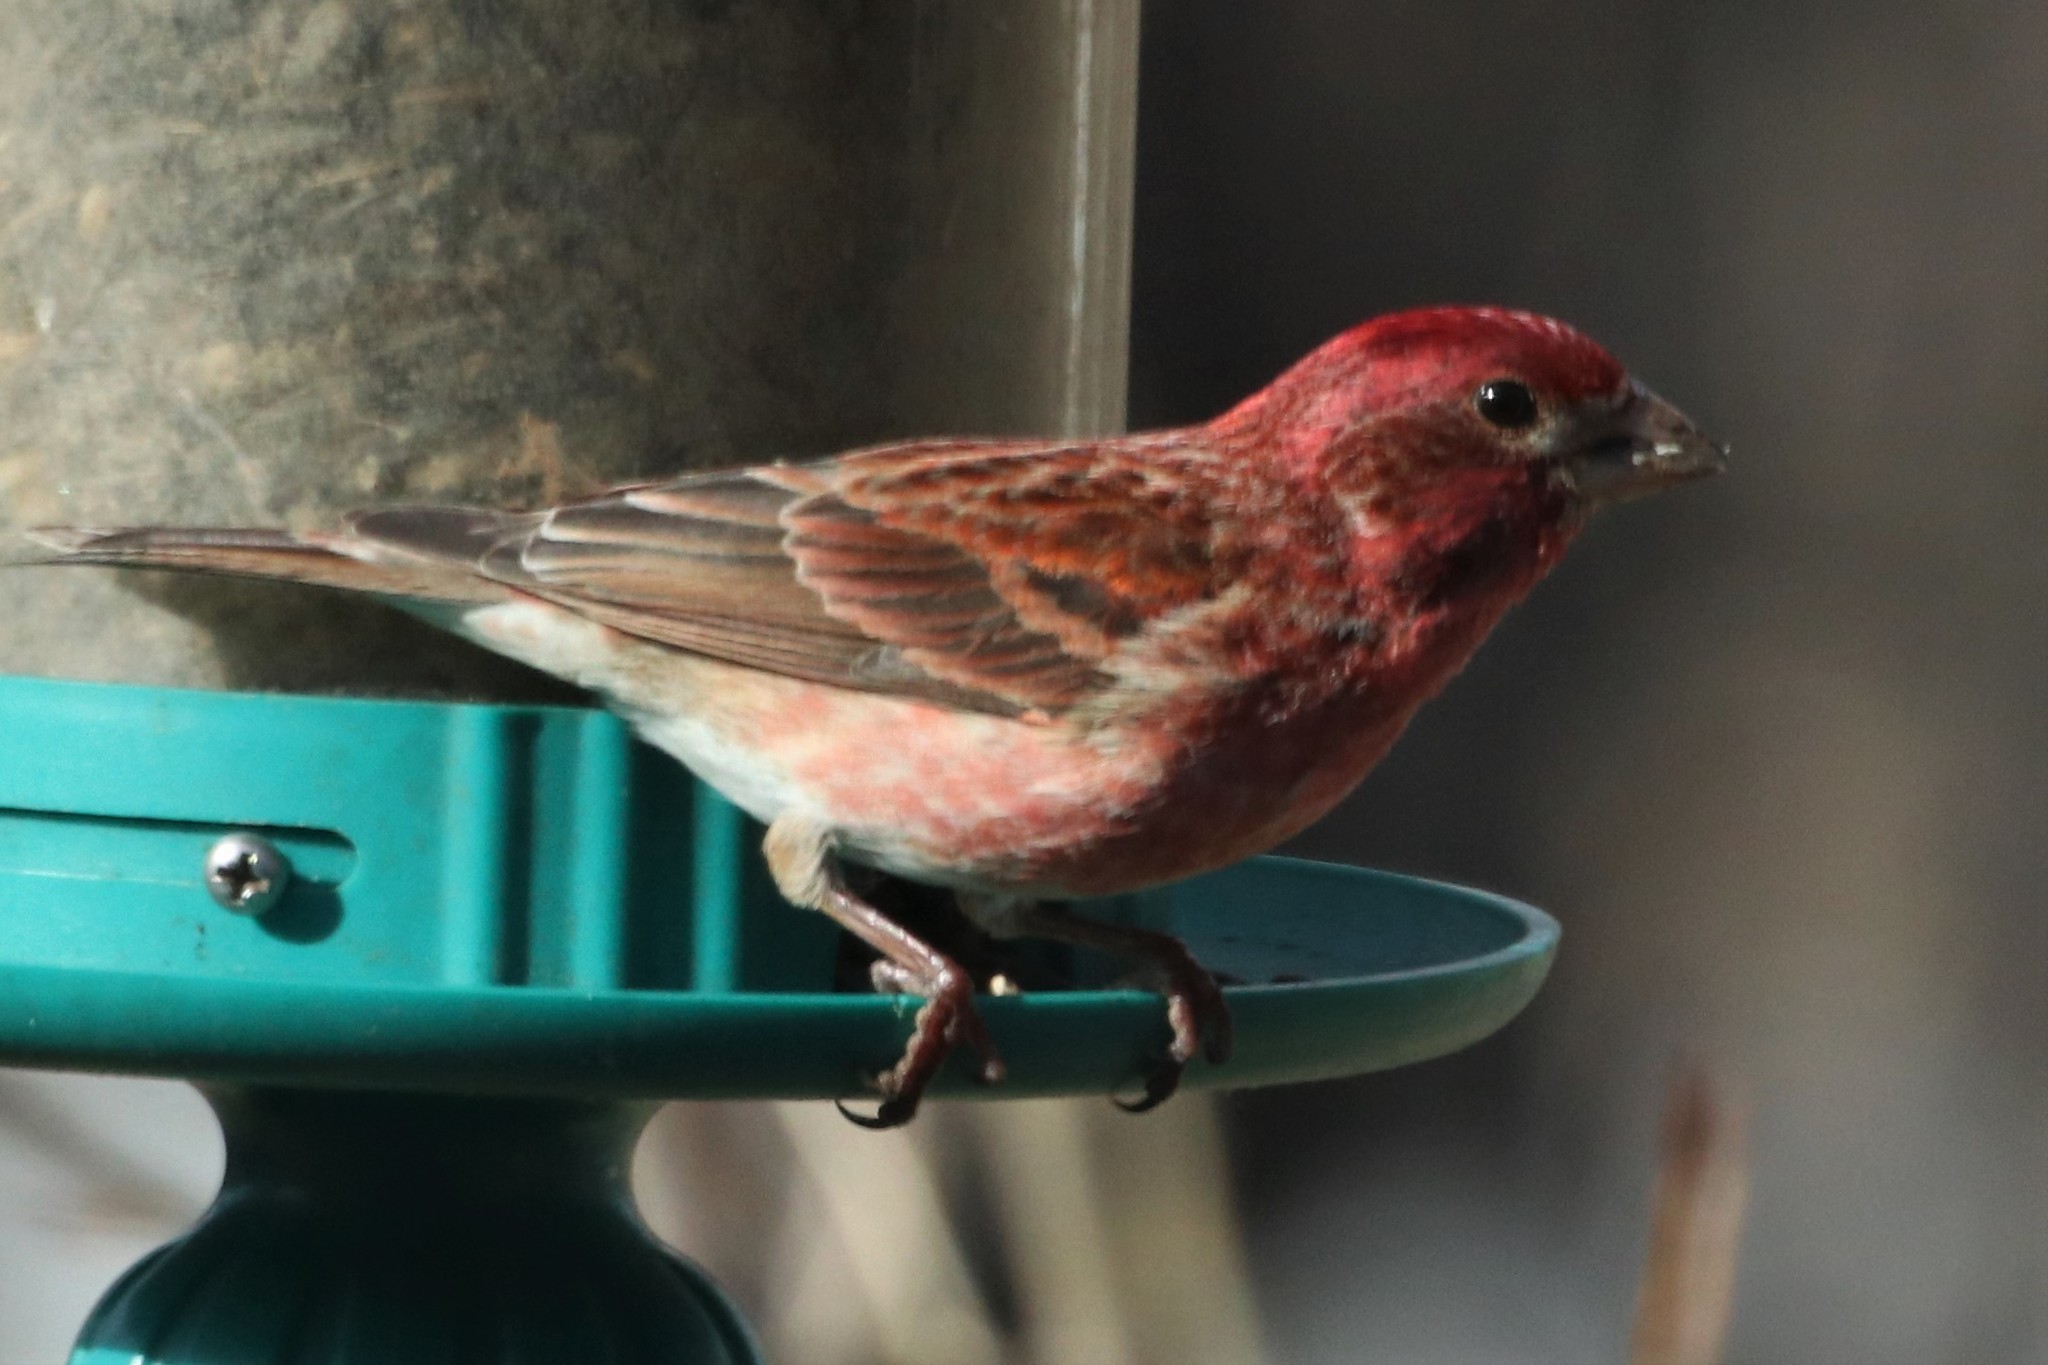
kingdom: Animalia
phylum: Chordata
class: Aves
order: Passeriformes
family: Fringillidae
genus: Haemorhous
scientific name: Haemorhous purpureus
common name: Purple finch
